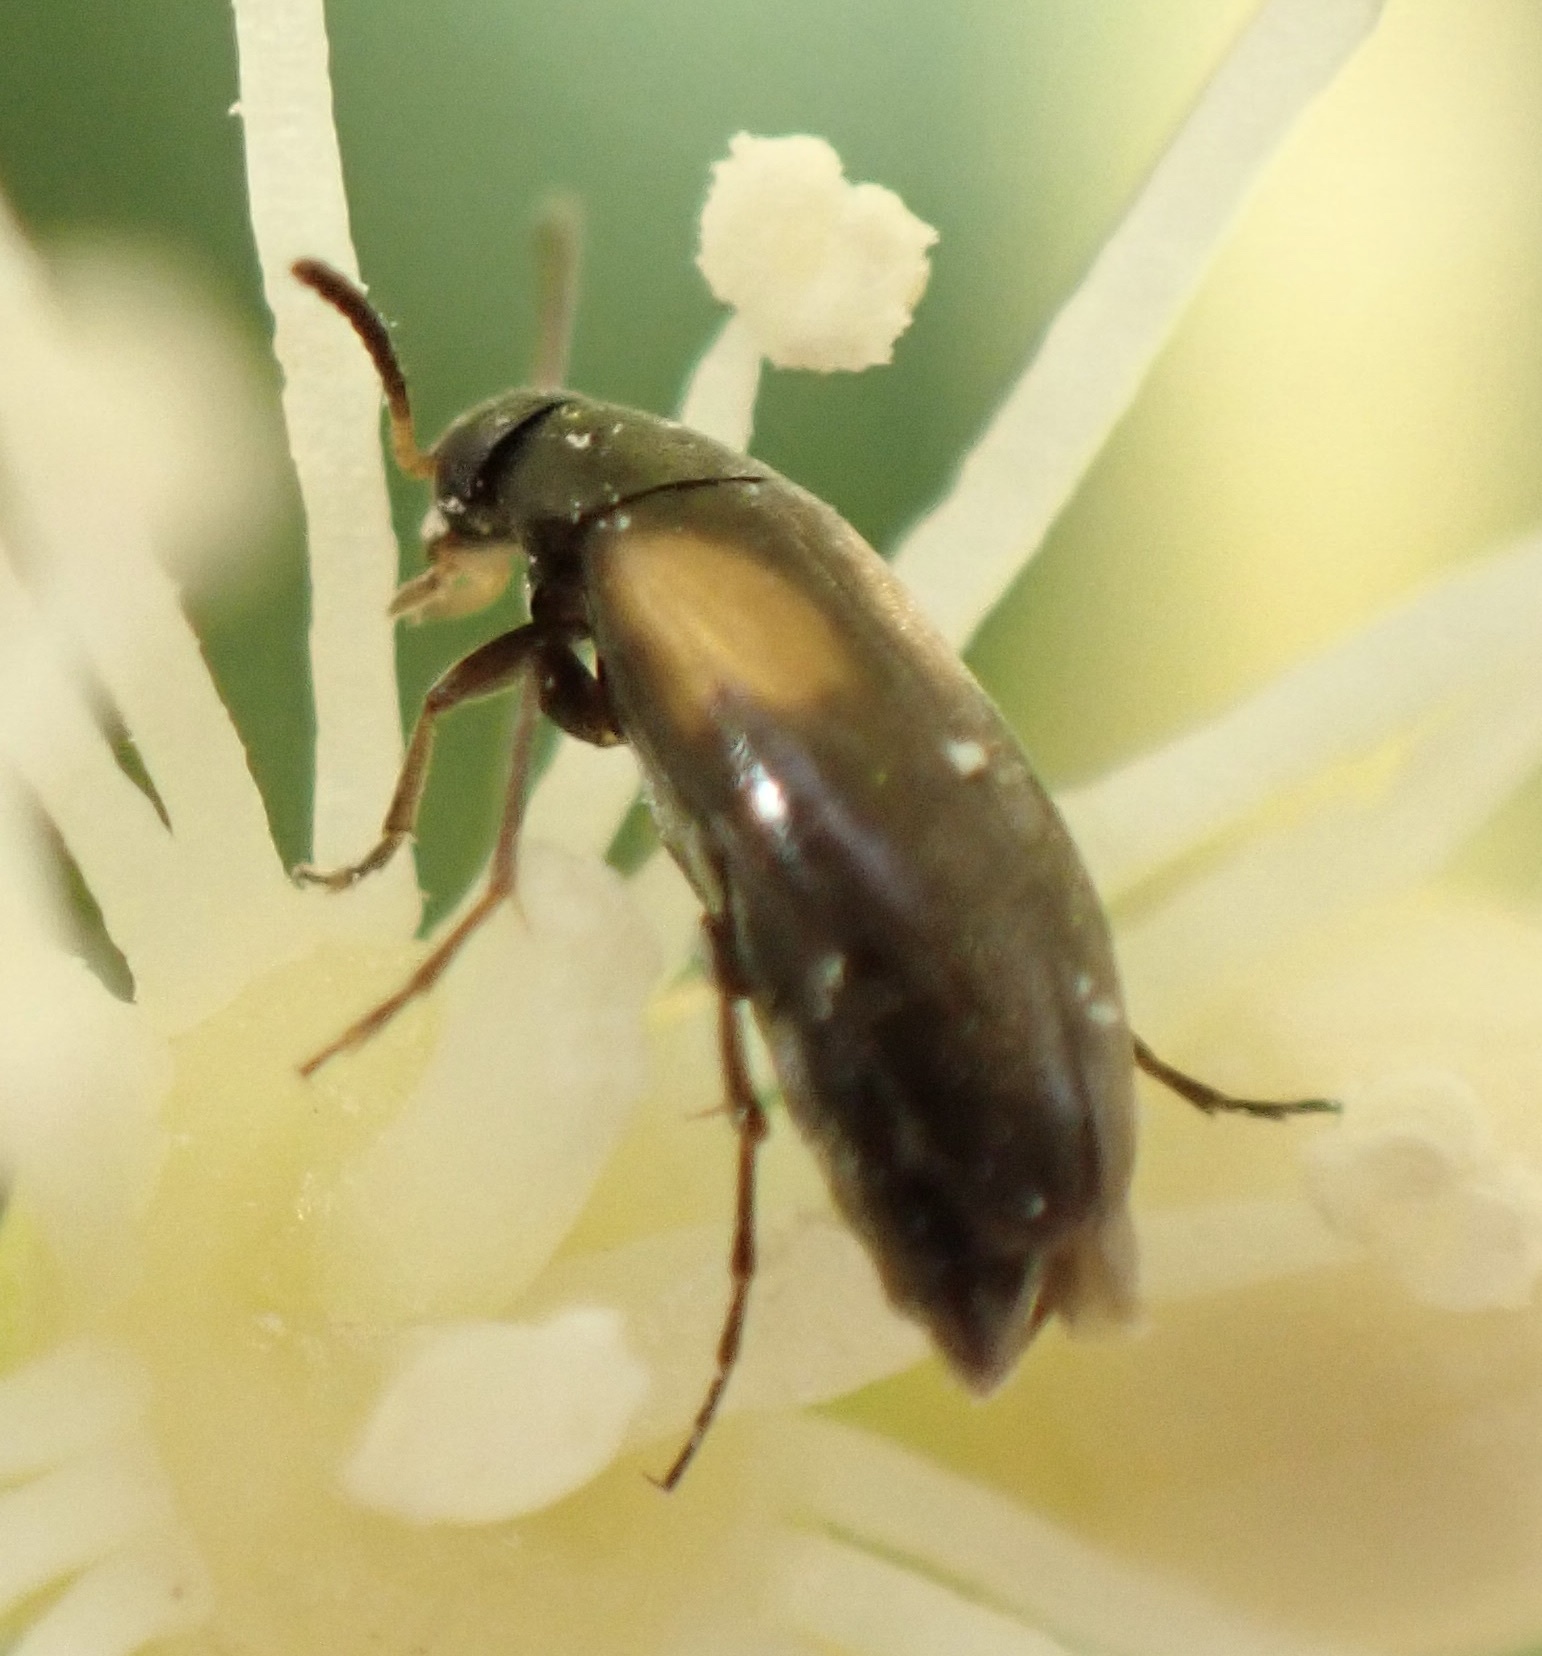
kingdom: Animalia
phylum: Arthropoda
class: Insecta
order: Coleoptera
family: Scraptiidae
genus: Anaspis
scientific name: Anaspis fasciata
